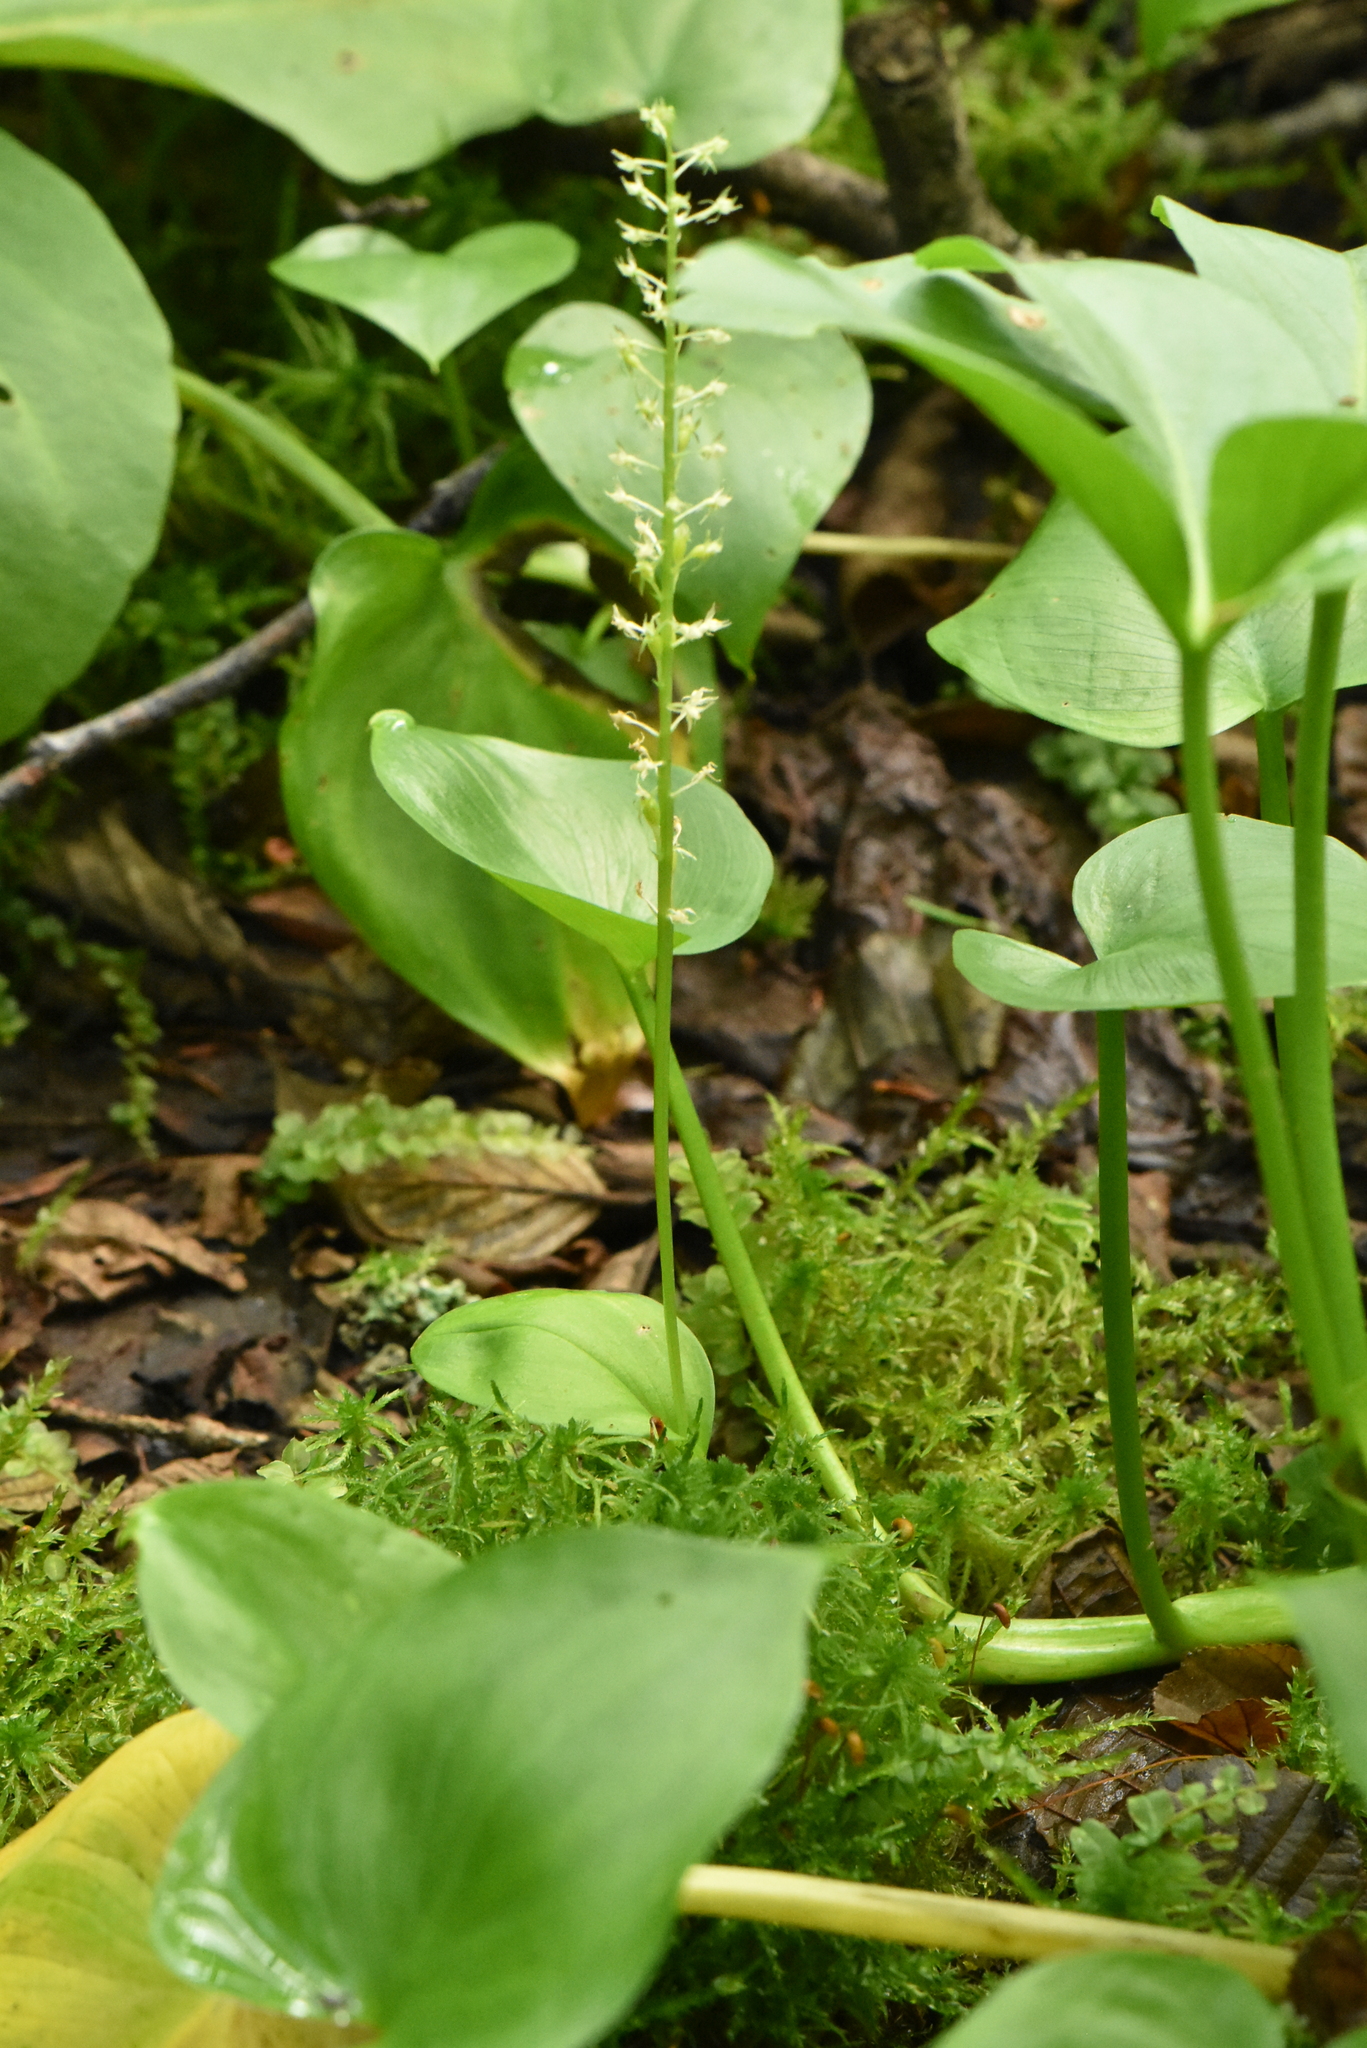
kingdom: Plantae
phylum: Tracheophyta
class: Liliopsida
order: Asparagales
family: Orchidaceae
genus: Malaxis
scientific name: Malaxis monophyllos
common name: White adder's-mouth
